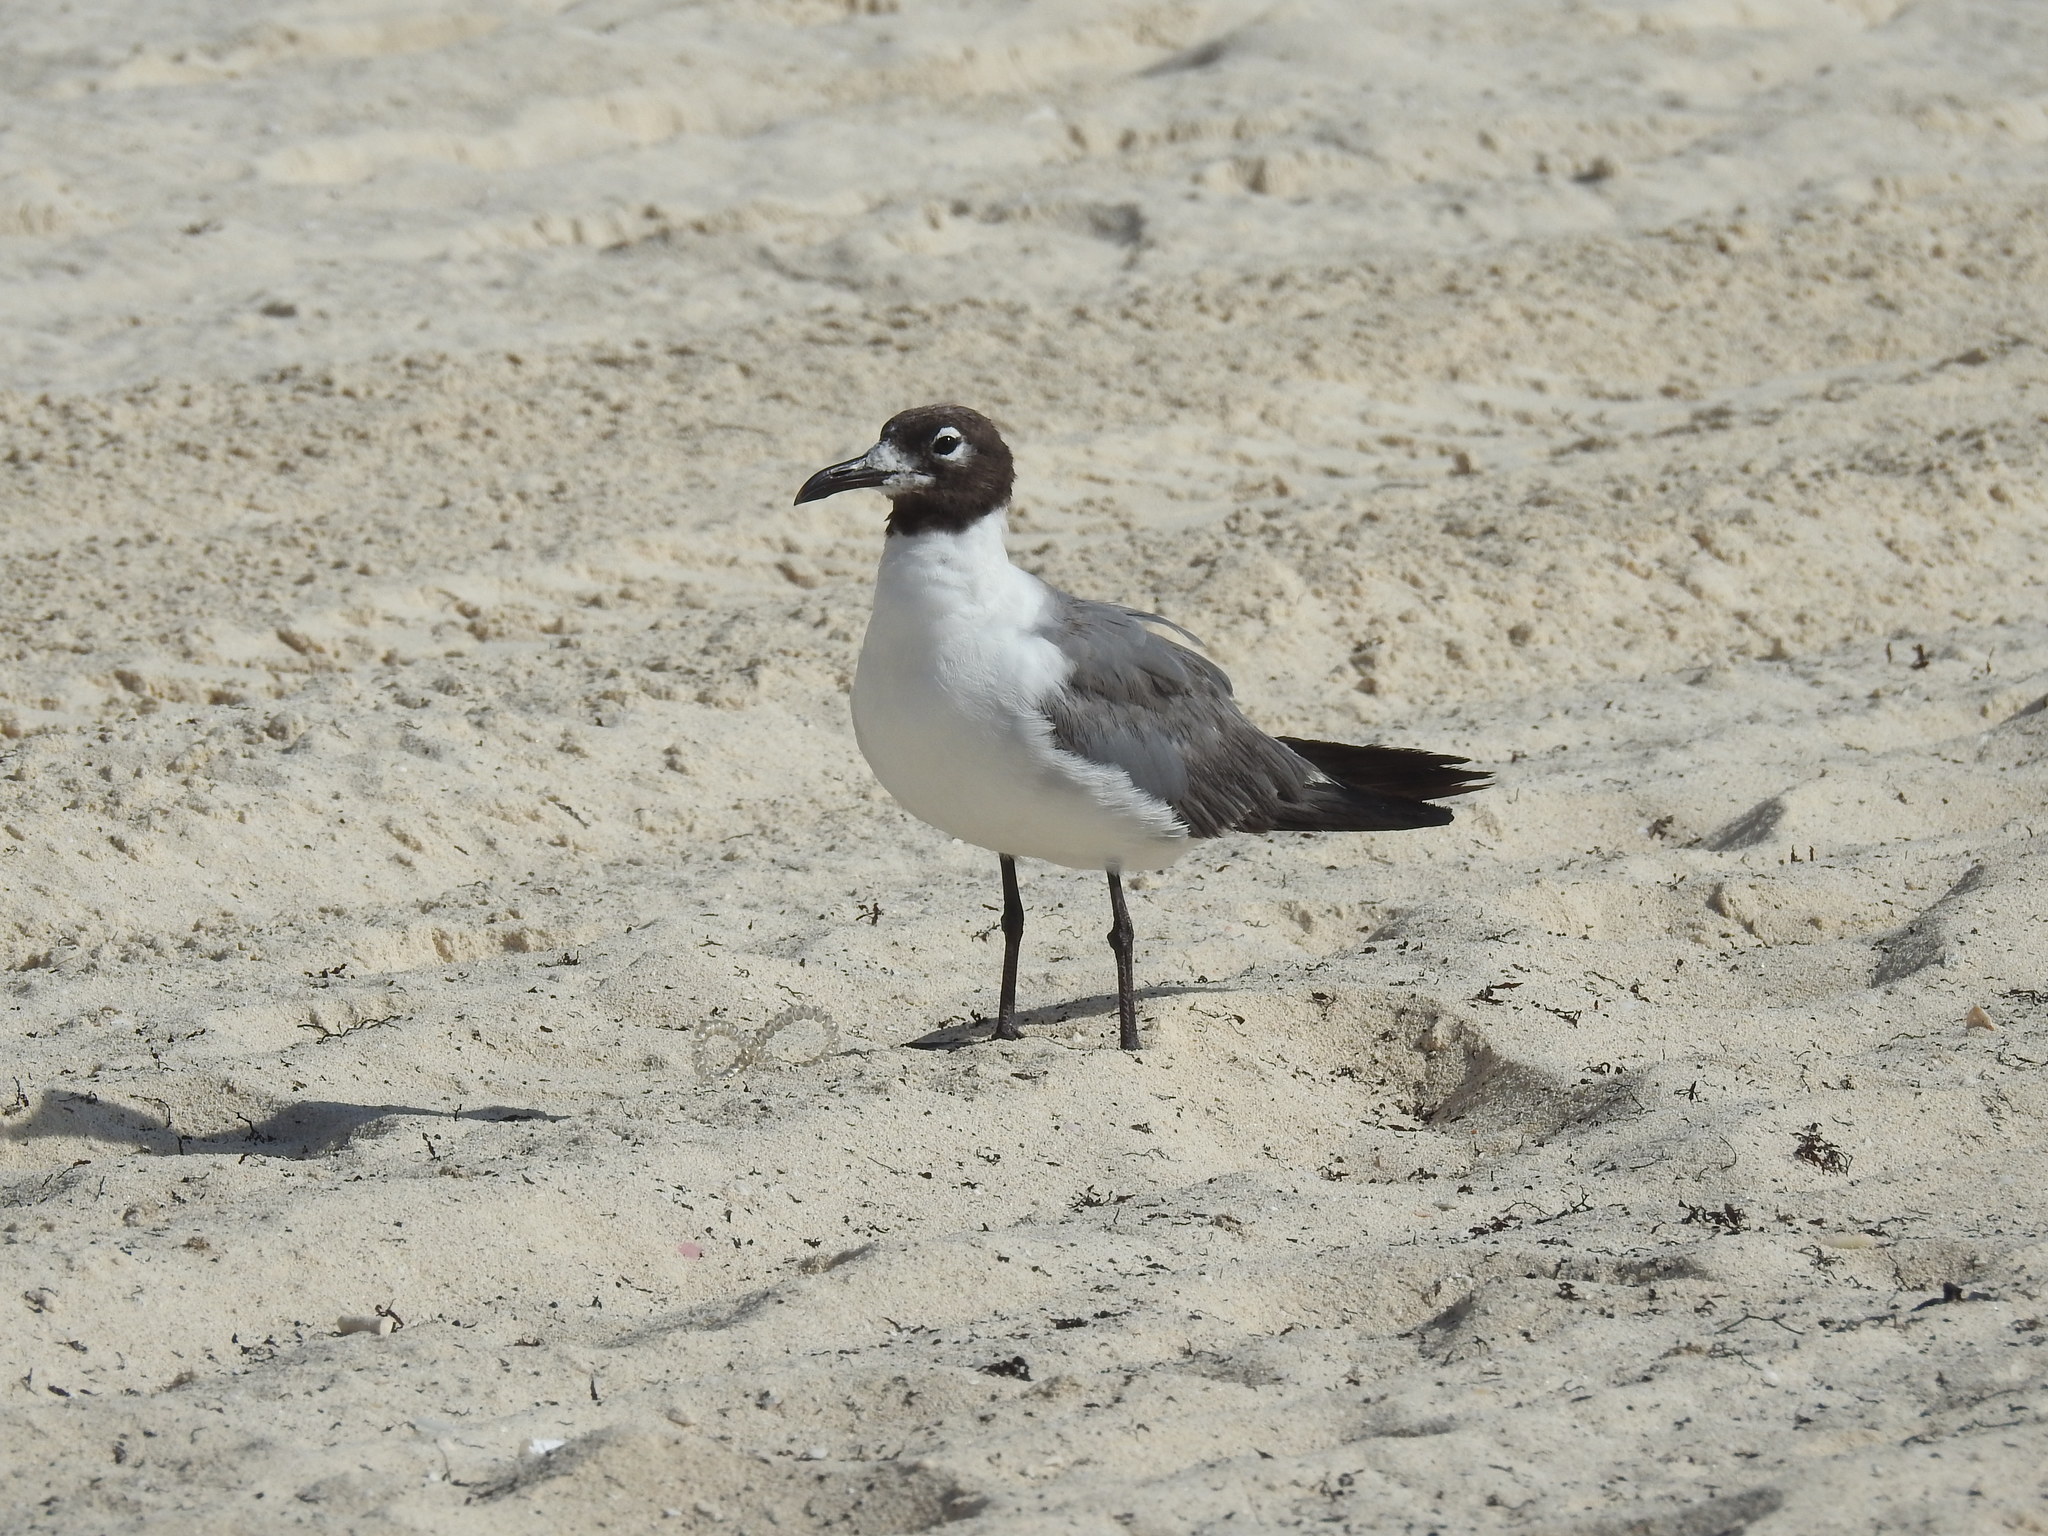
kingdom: Animalia
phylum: Chordata
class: Aves
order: Charadriiformes
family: Laridae
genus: Leucophaeus
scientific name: Leucophaeus atricilla
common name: Laughing gull
